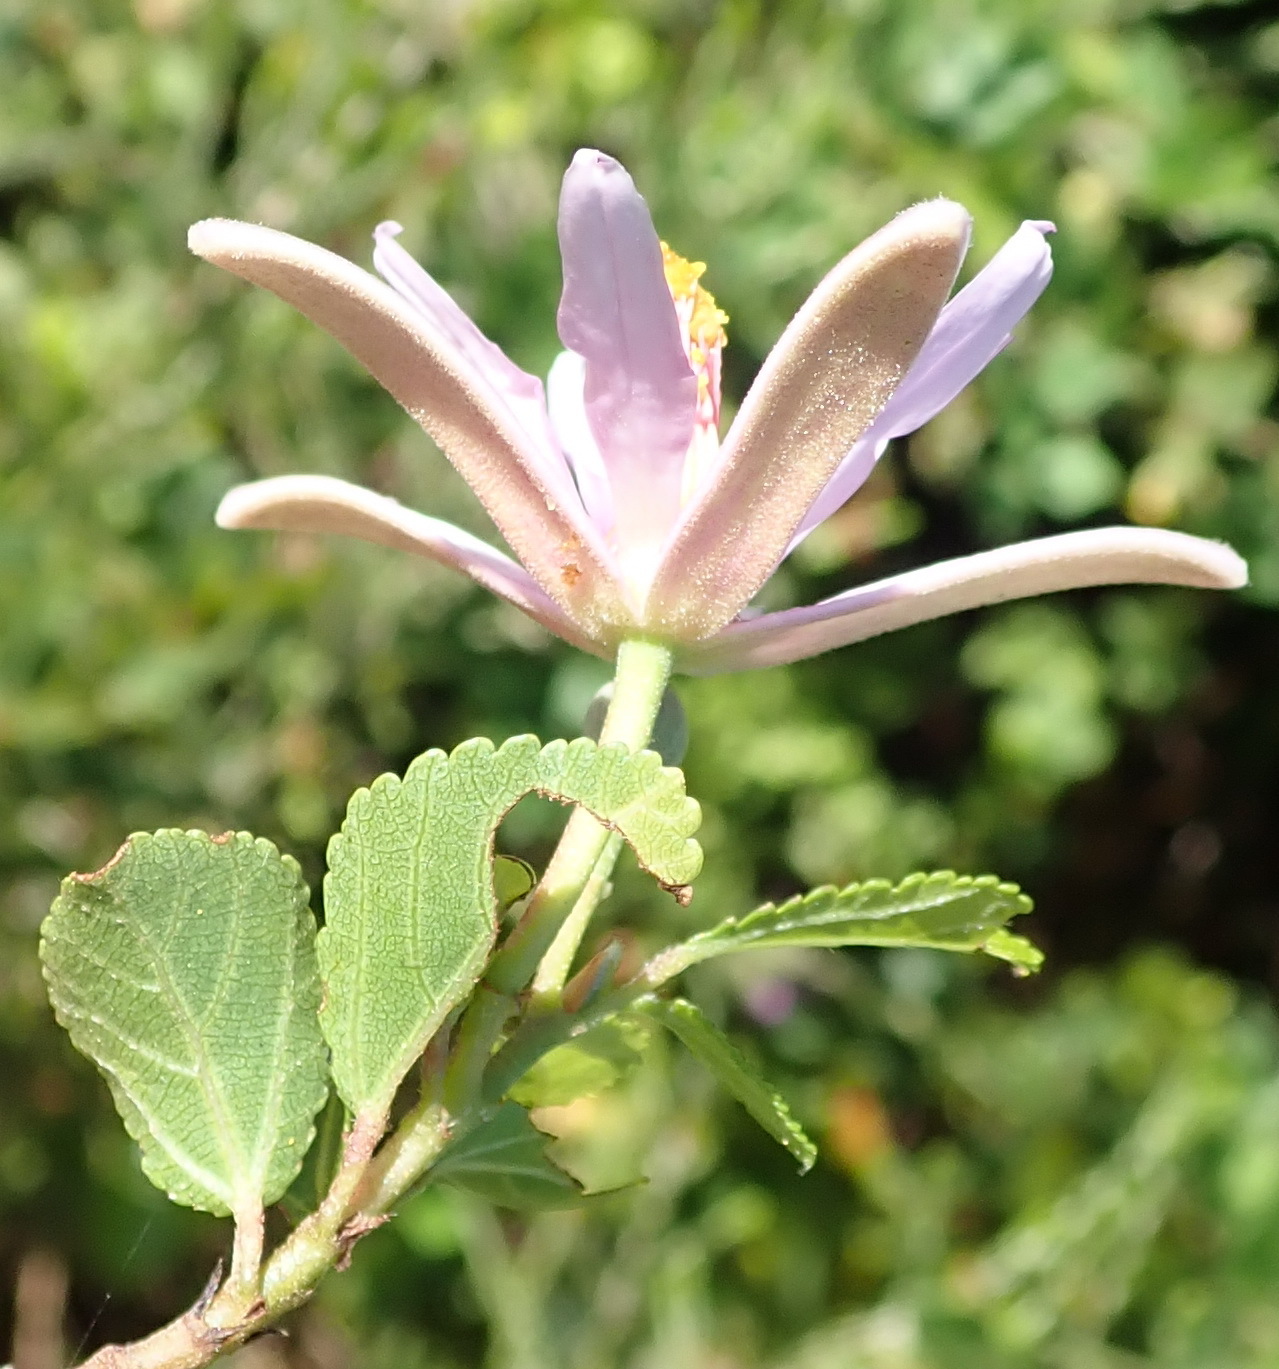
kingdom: Plantae
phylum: Tracheophyta
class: Magnoliopsida
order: Malvales
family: Malvaceae
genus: Grewia
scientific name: Grewia occidentalis
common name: Crossberry
